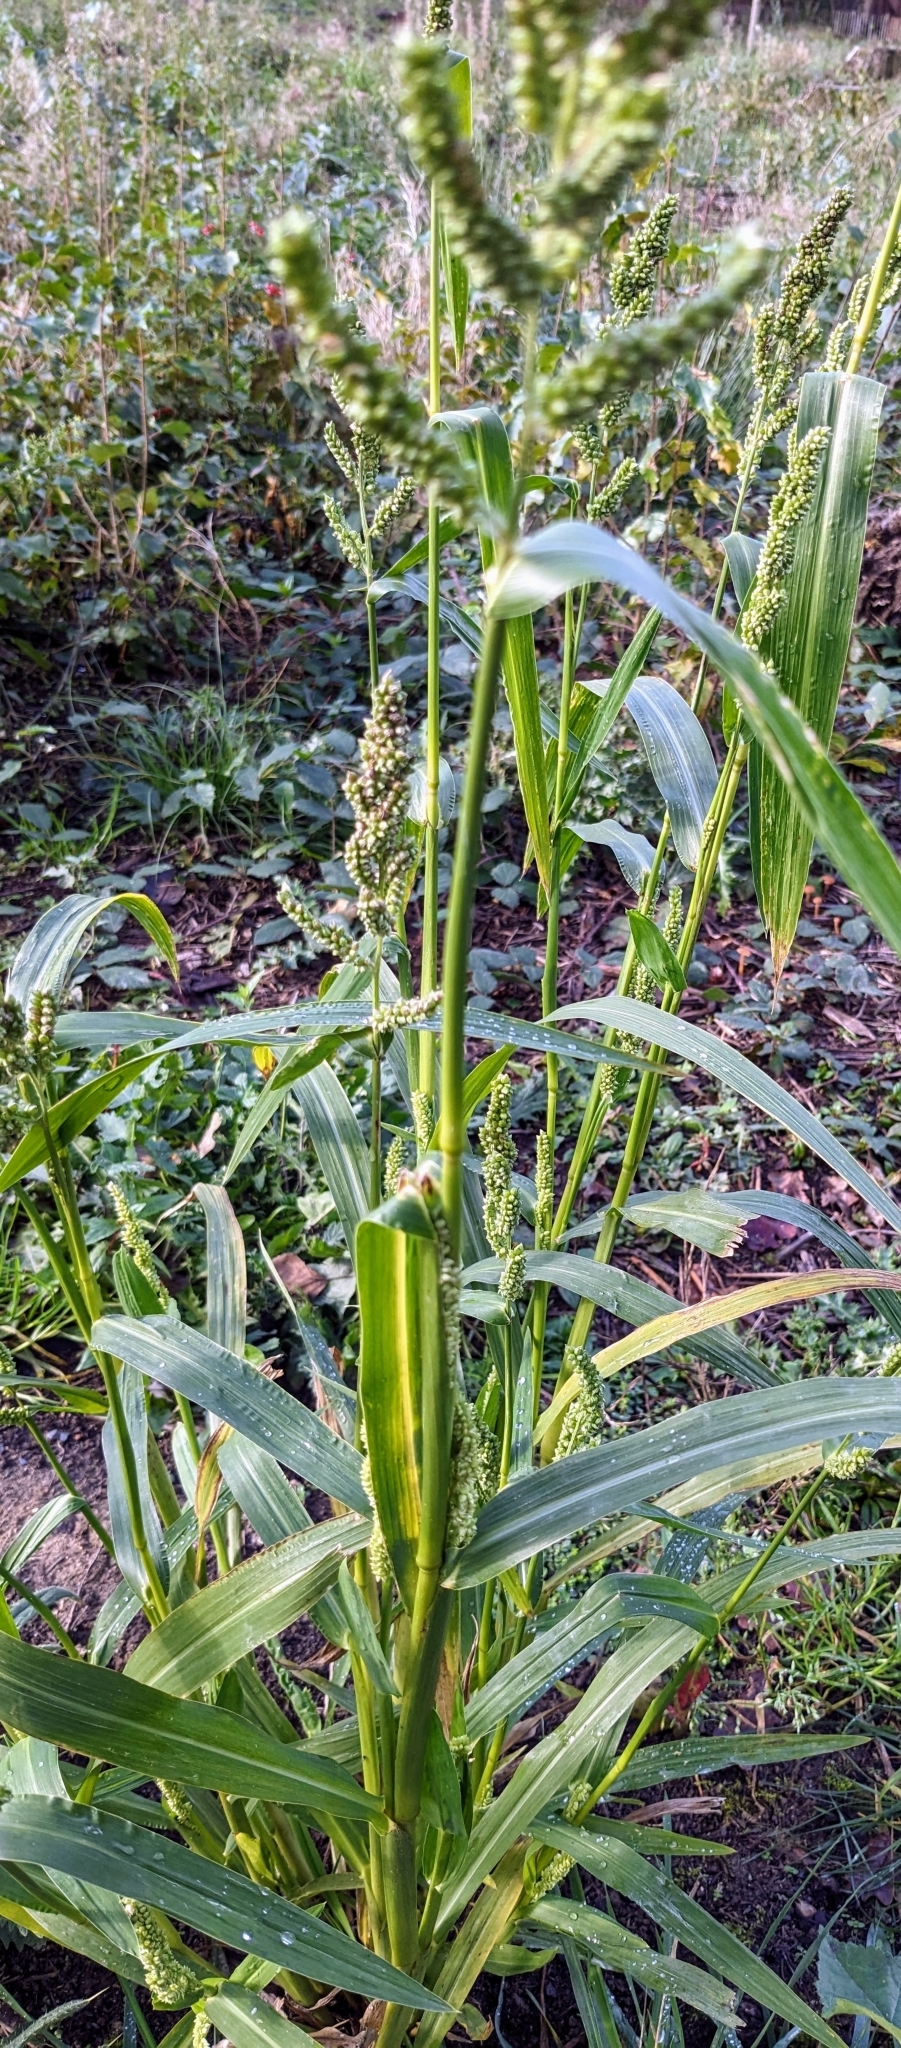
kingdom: Plantae
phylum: Tracheophyta
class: Liliopsida
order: Poales
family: Poaceae
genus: Echinochloa
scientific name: Echinochloa crus-galli
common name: Cockspur
